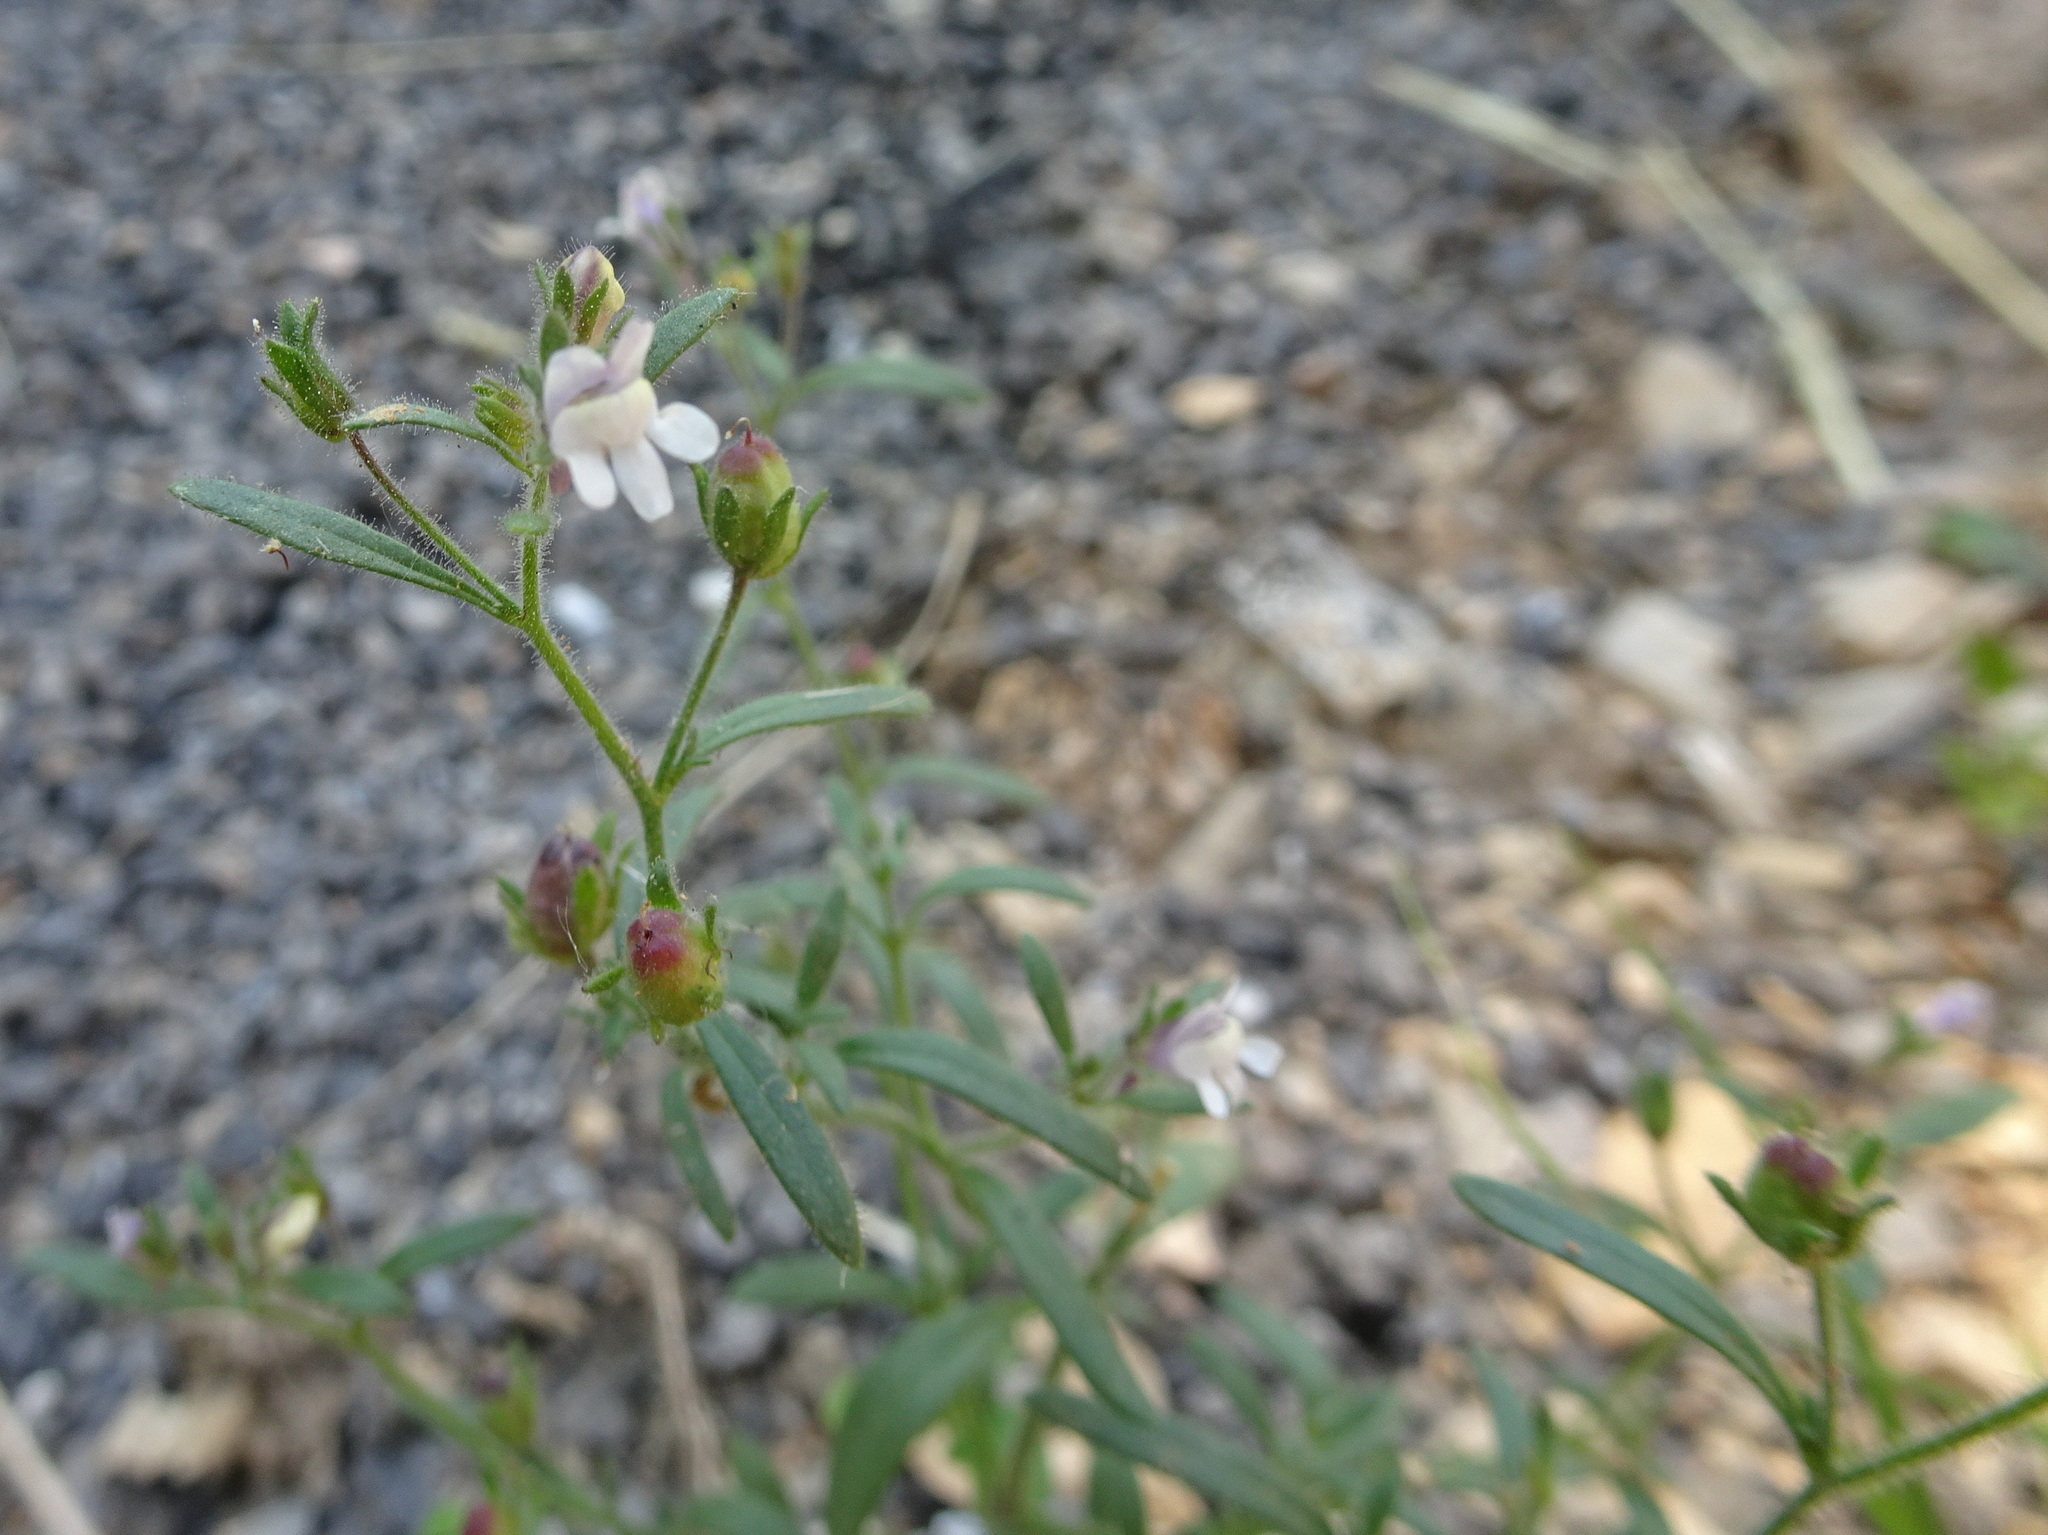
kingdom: Plantae
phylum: Tracheophyta
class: Magnoliopsida
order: Lamiales
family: Plantaginaceae
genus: Chaenorhinum
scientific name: Chaenorhinum minus
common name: Dwarf snapdragon
